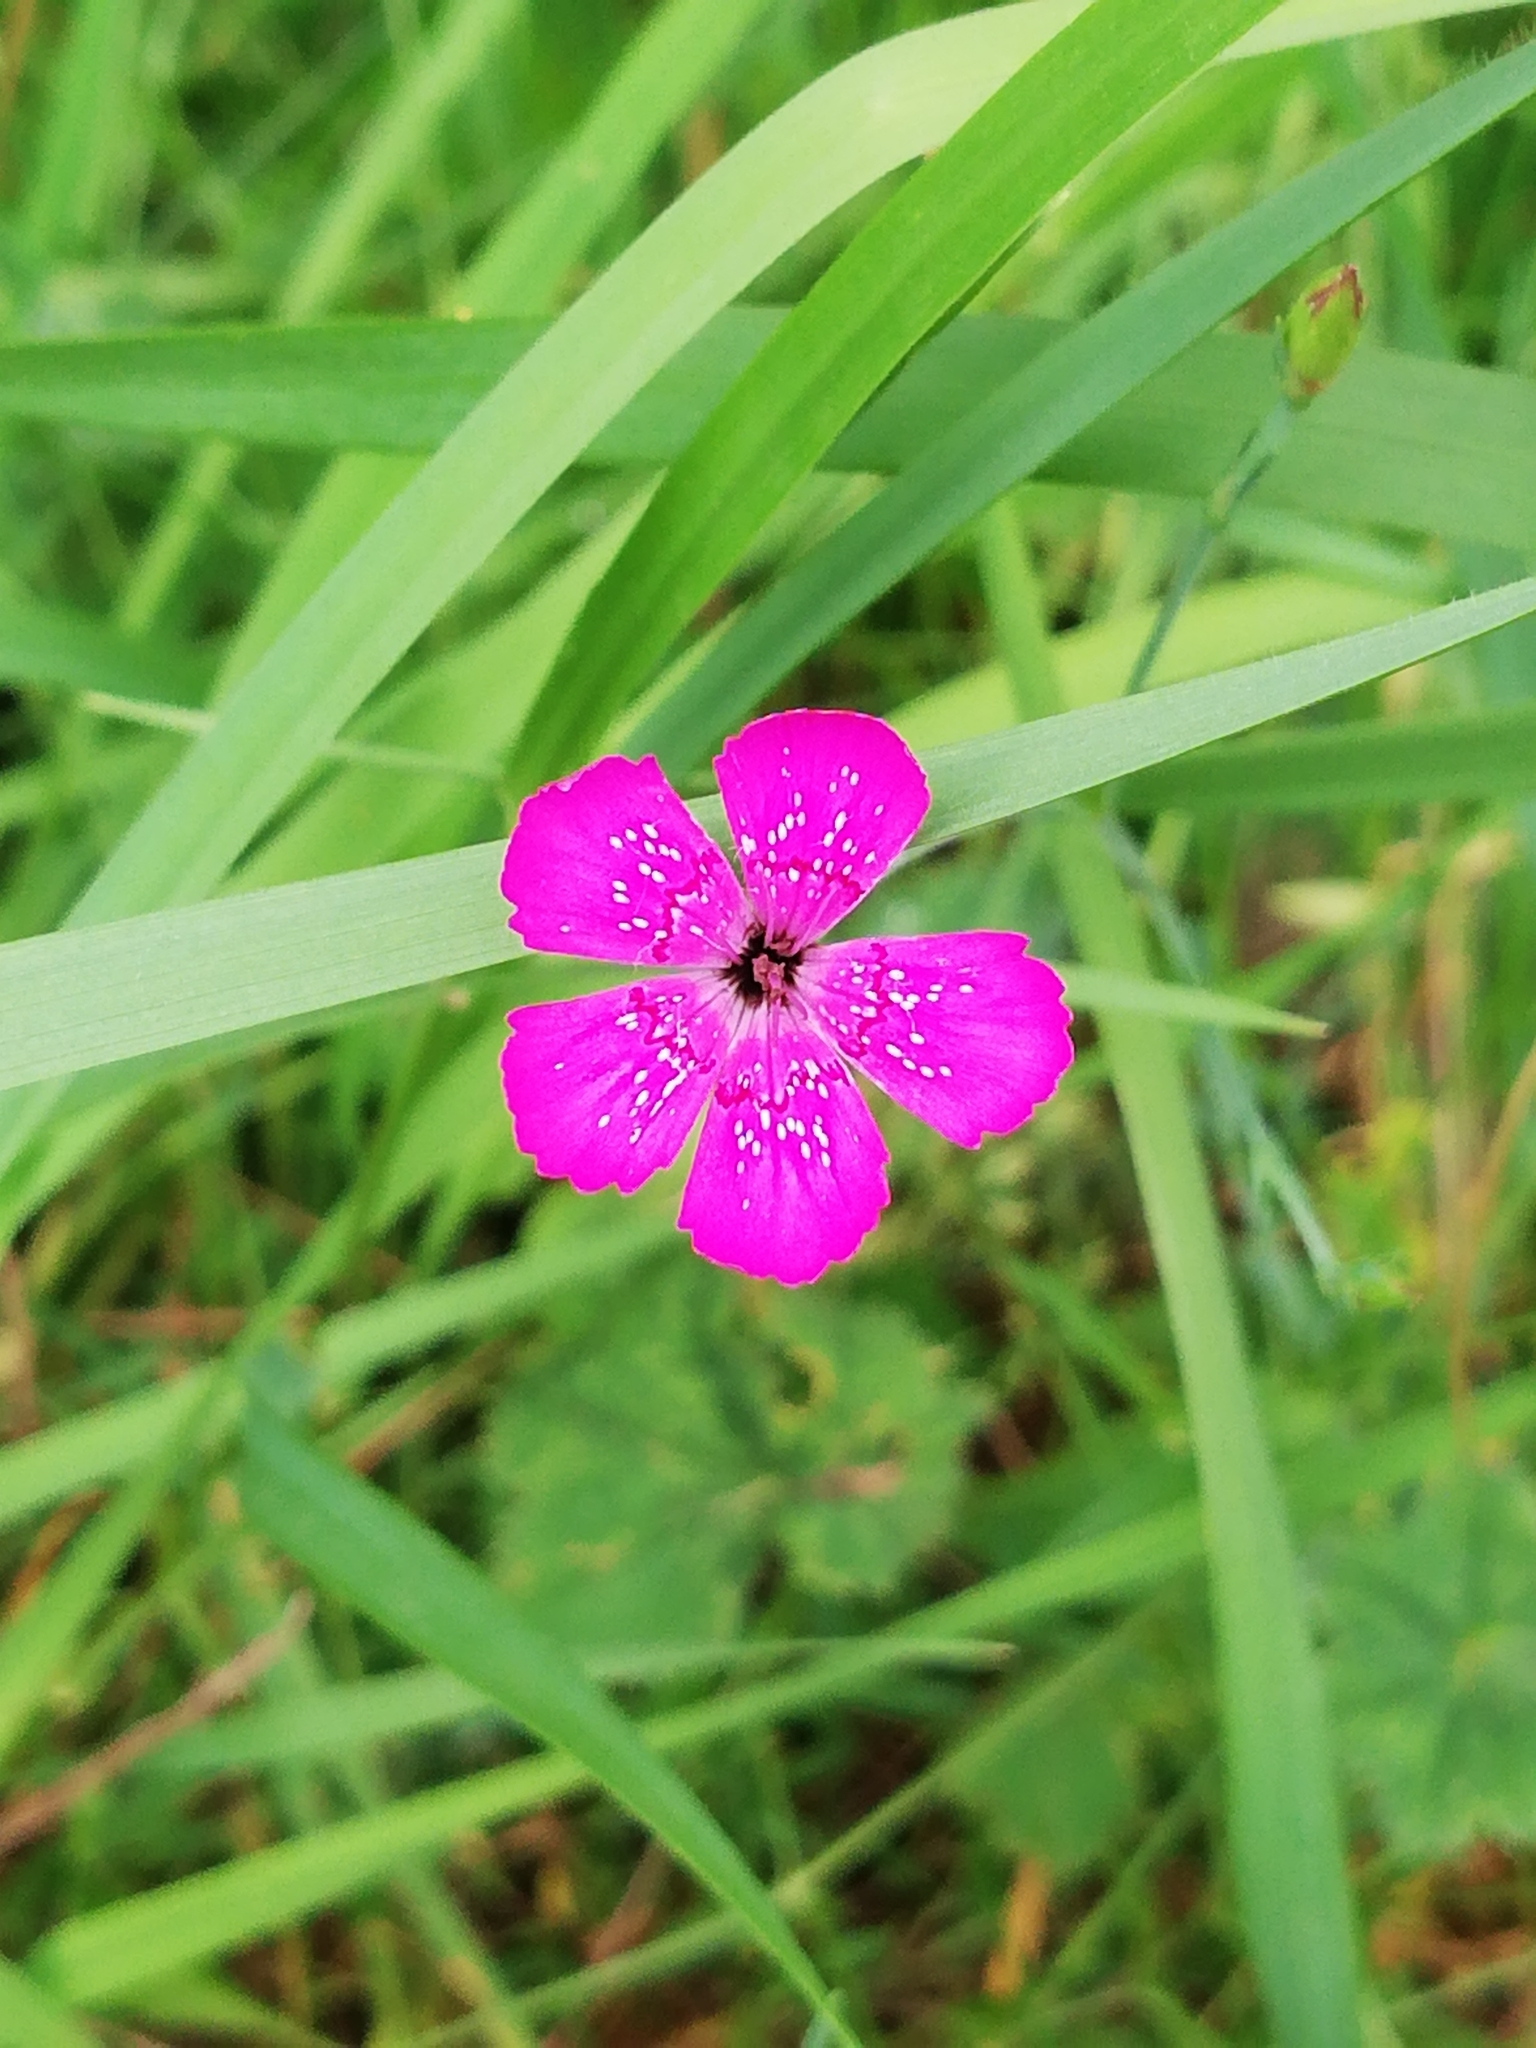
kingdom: Plantae
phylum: Tracheophyta
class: Magnoliopsida
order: Caryophyllales
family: Caryophyllaceae
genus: Dianthus
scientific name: Dianthus deltoides
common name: Maiden pink
